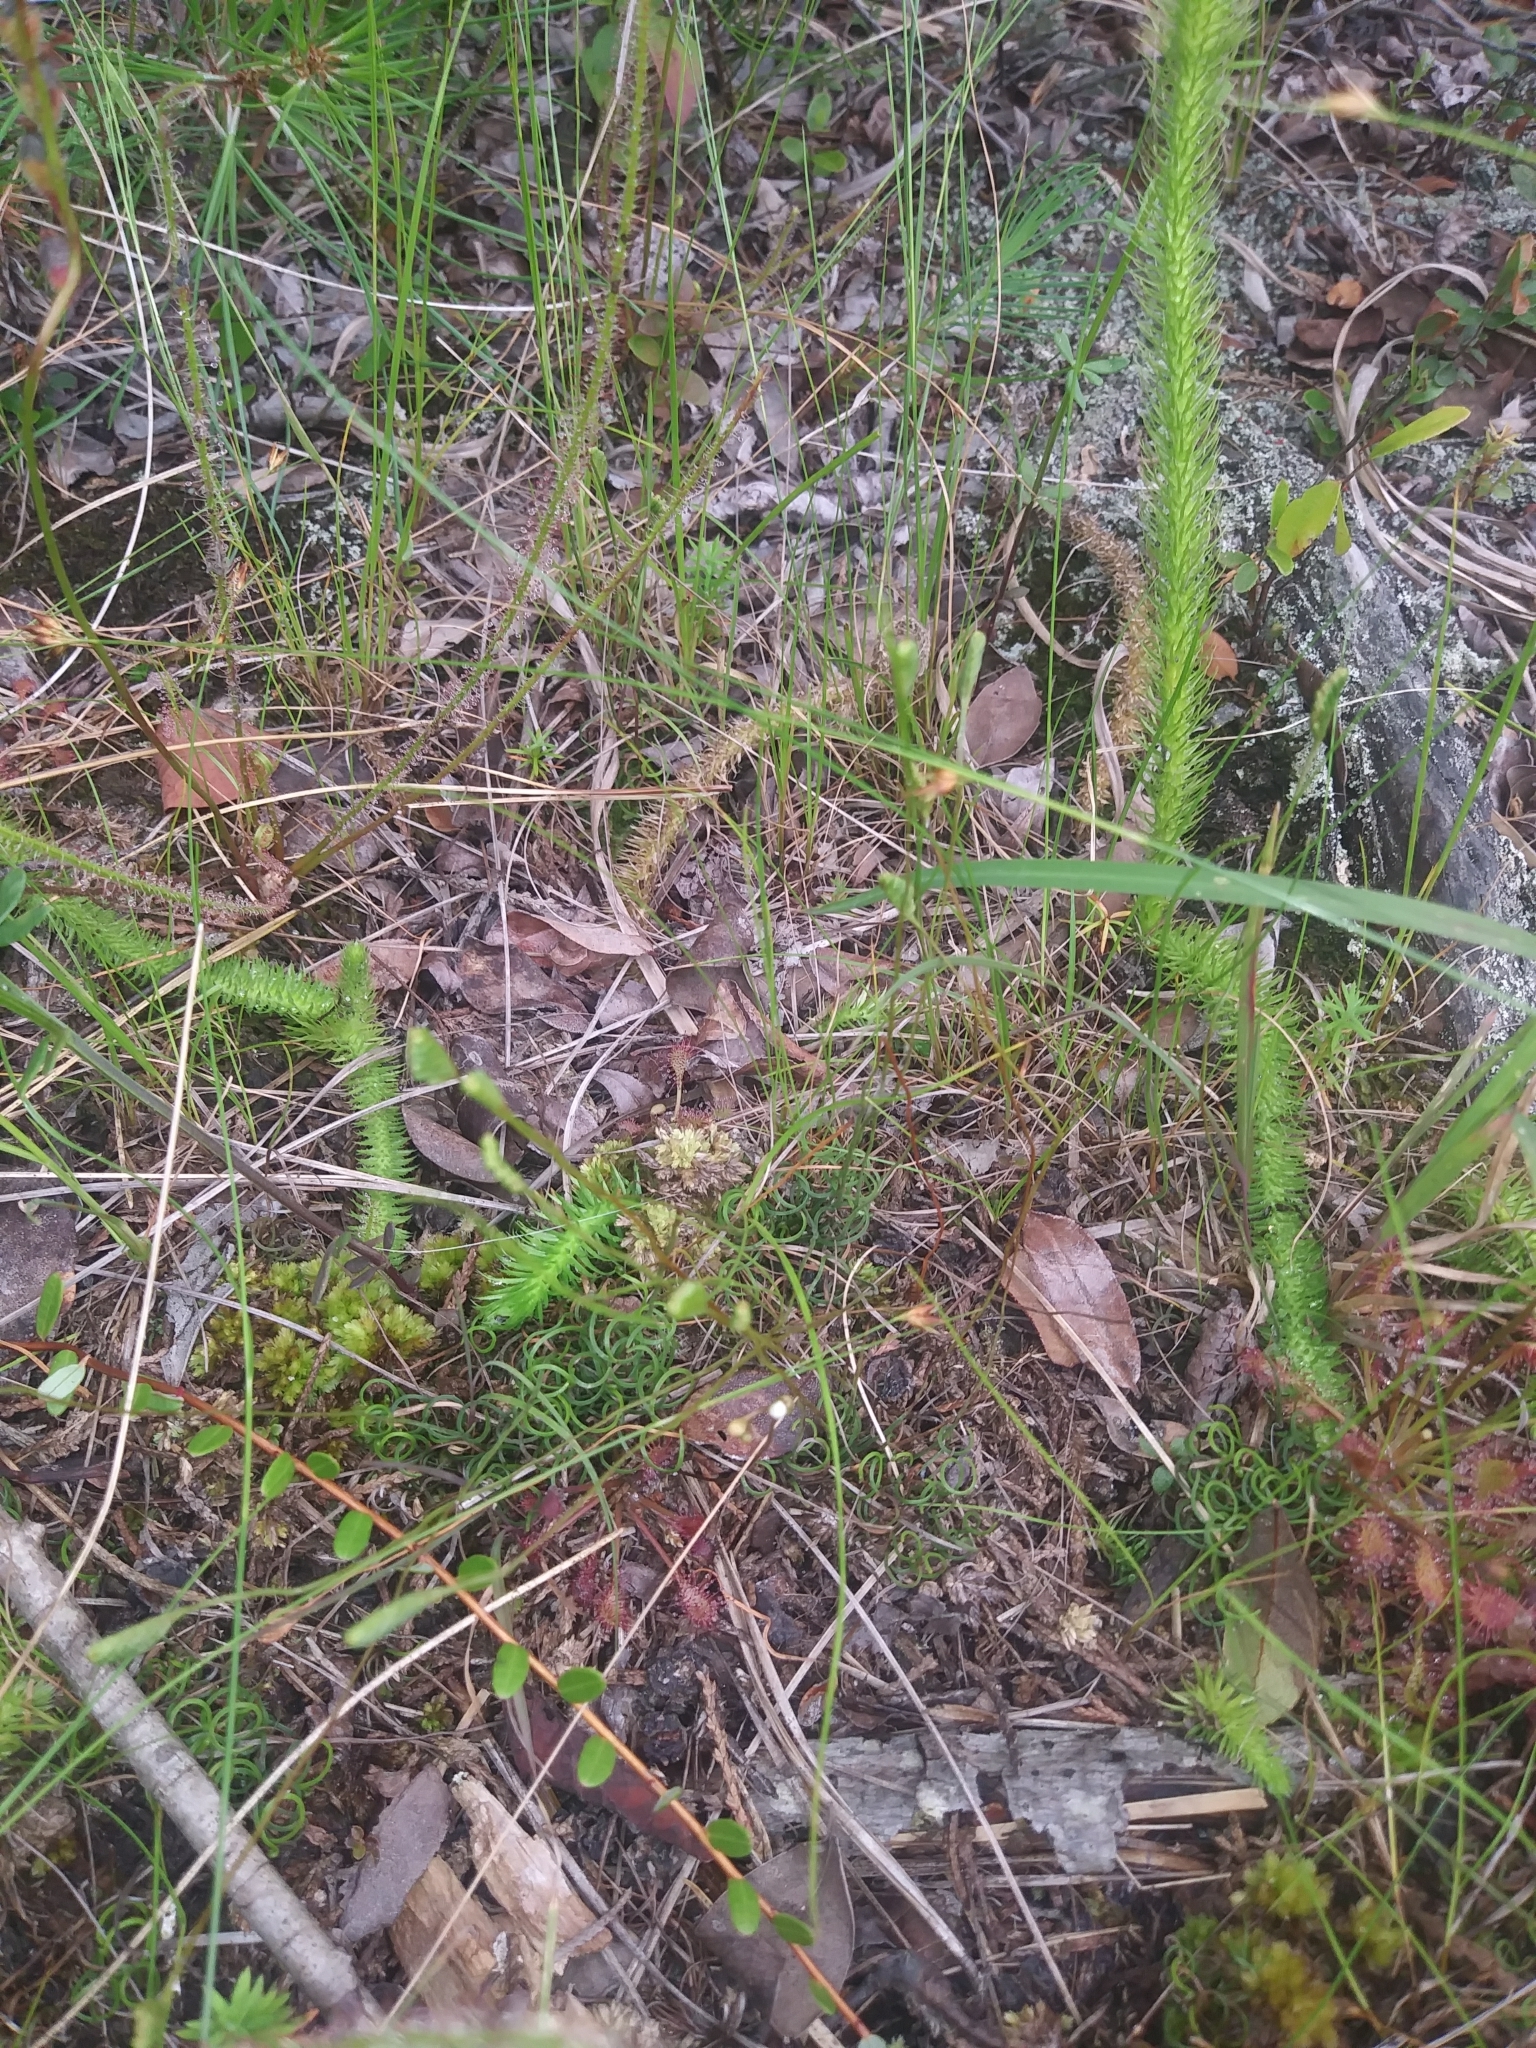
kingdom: Plantae
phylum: Tracheophyta
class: Lycopodiopsida
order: Lycopodiales
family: Lycopodiaceae
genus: Lycopodiella
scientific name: Lycopodiella alopecuroides
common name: Foxtail clubmoss
